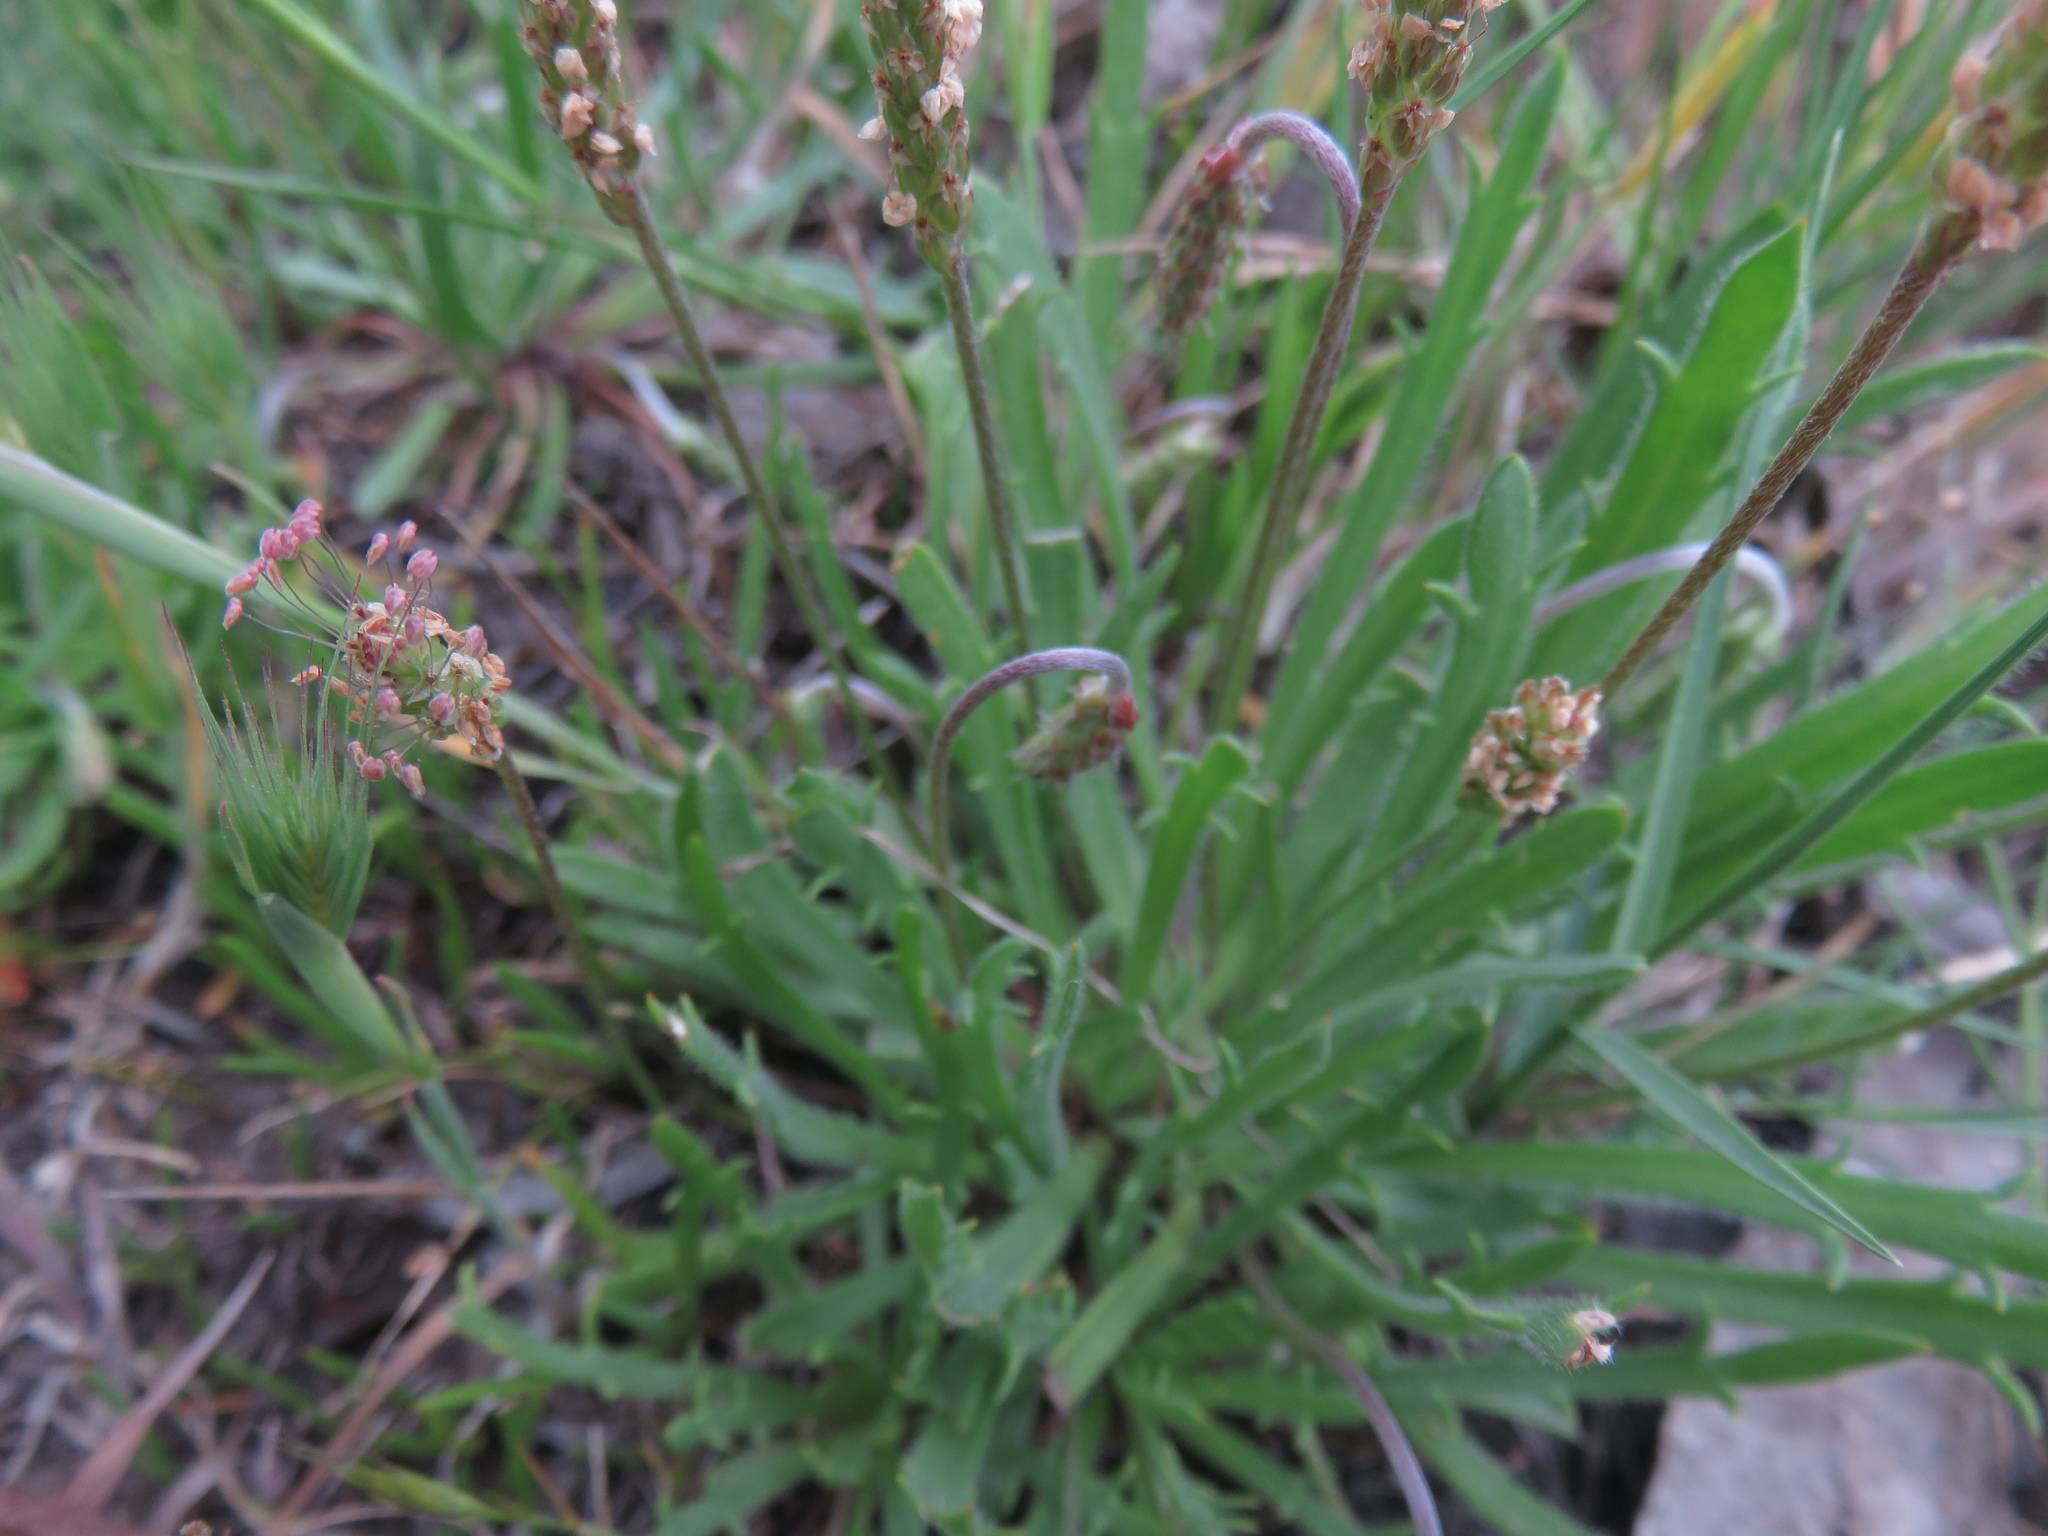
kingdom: Plantae
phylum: Tracheophyta
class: Magnoliopsida
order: Lamiales
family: Plantaginaceae
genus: Plantago
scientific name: Plantago coronopus
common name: Buck's-horn plantain
